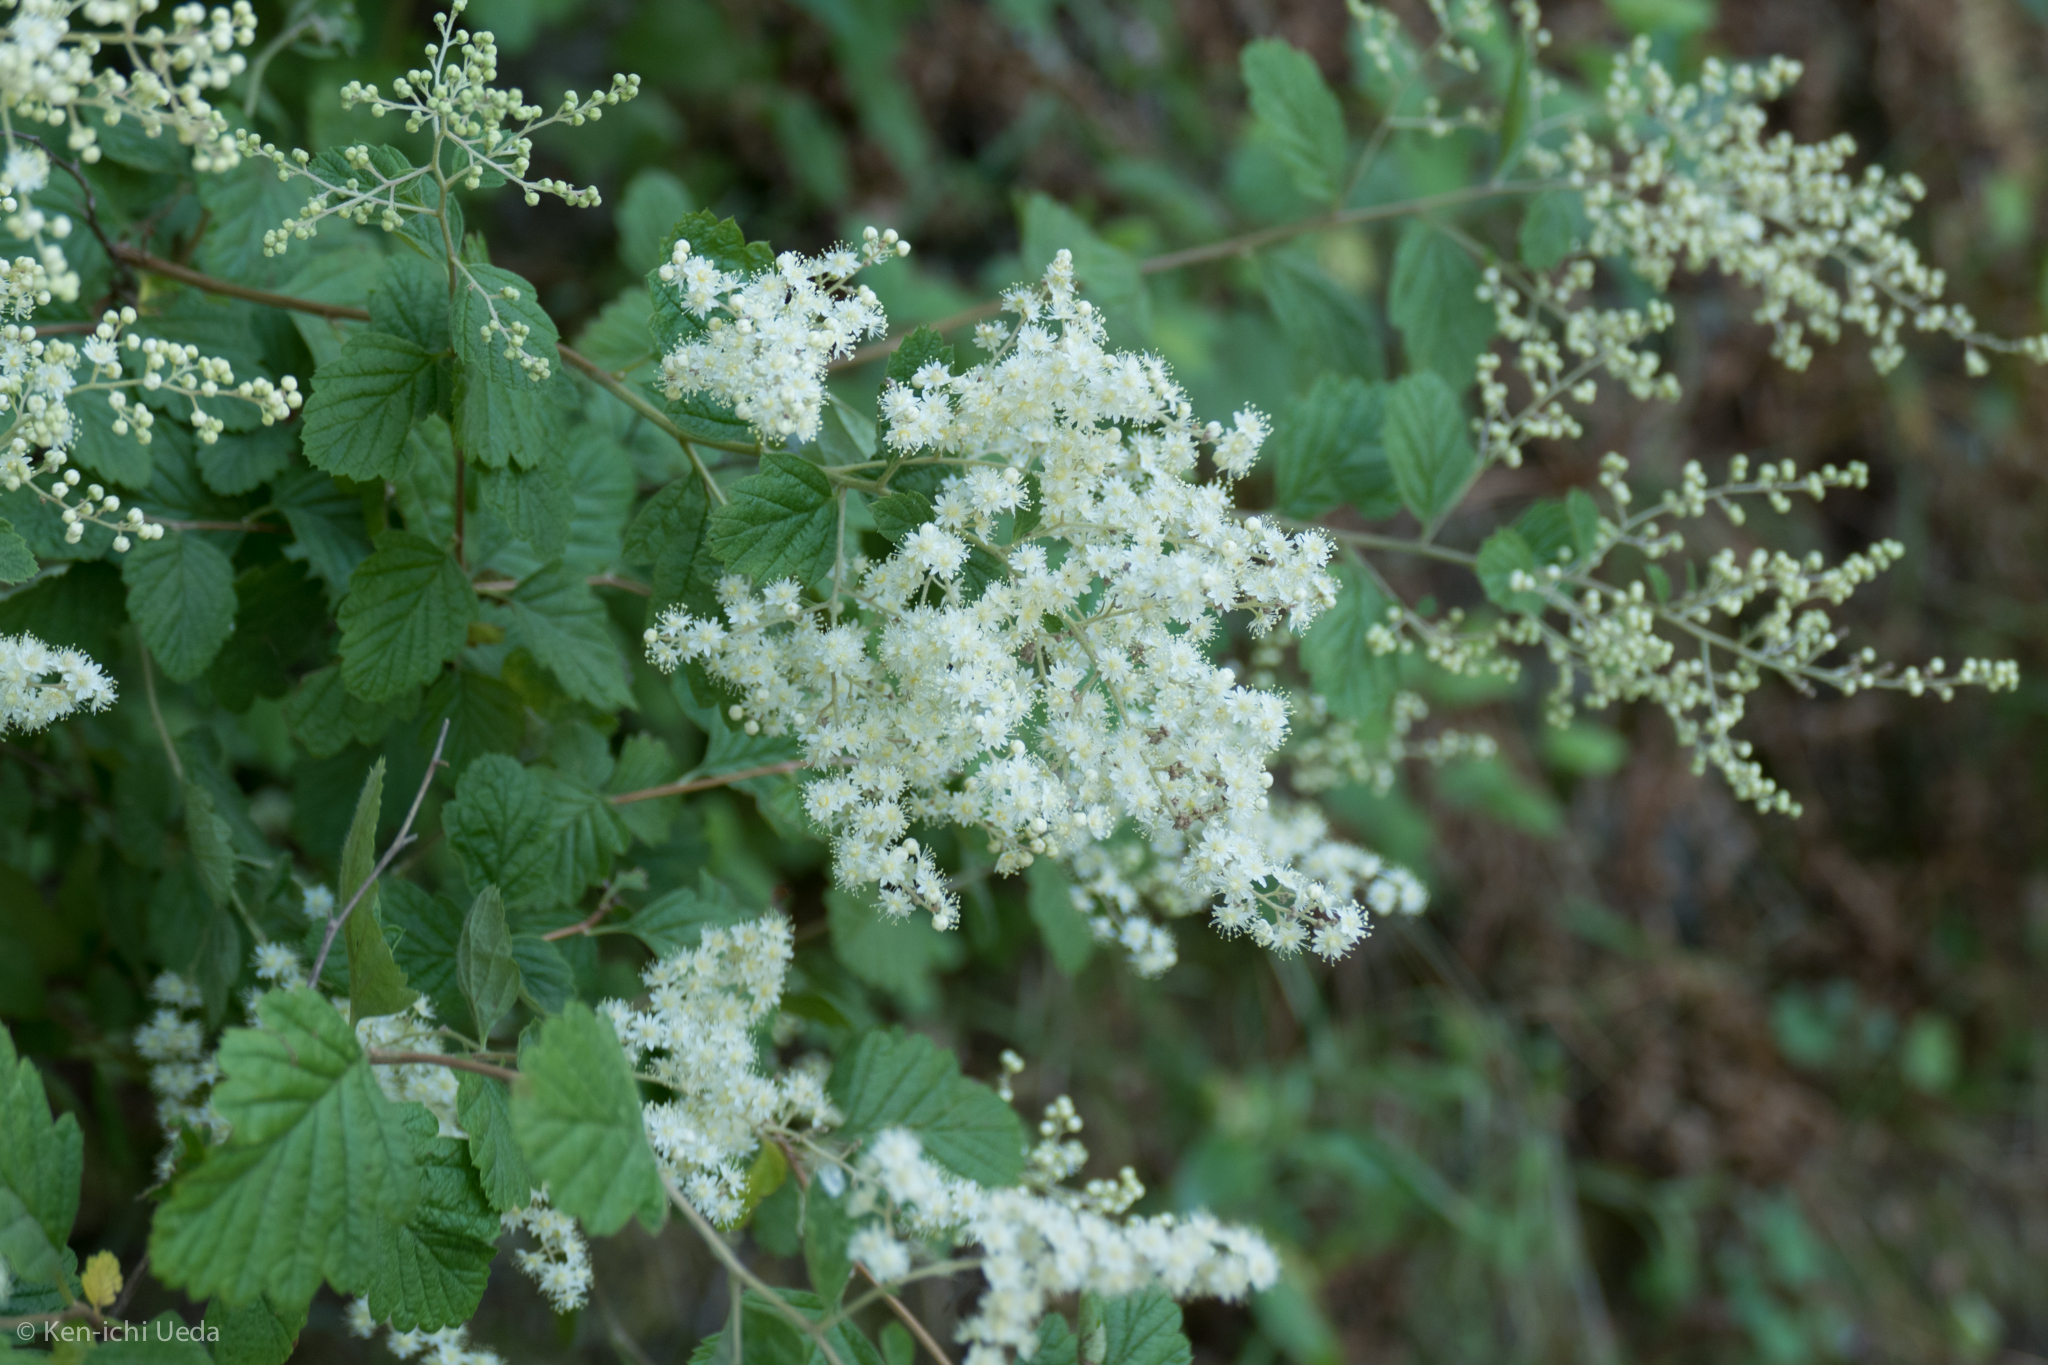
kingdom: Plantae
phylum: Tracheophyta
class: Magnoliopsida
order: Rosales
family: Rosaceae
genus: Holodiscus
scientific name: Holodiscus discolor
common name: Oceanspray
